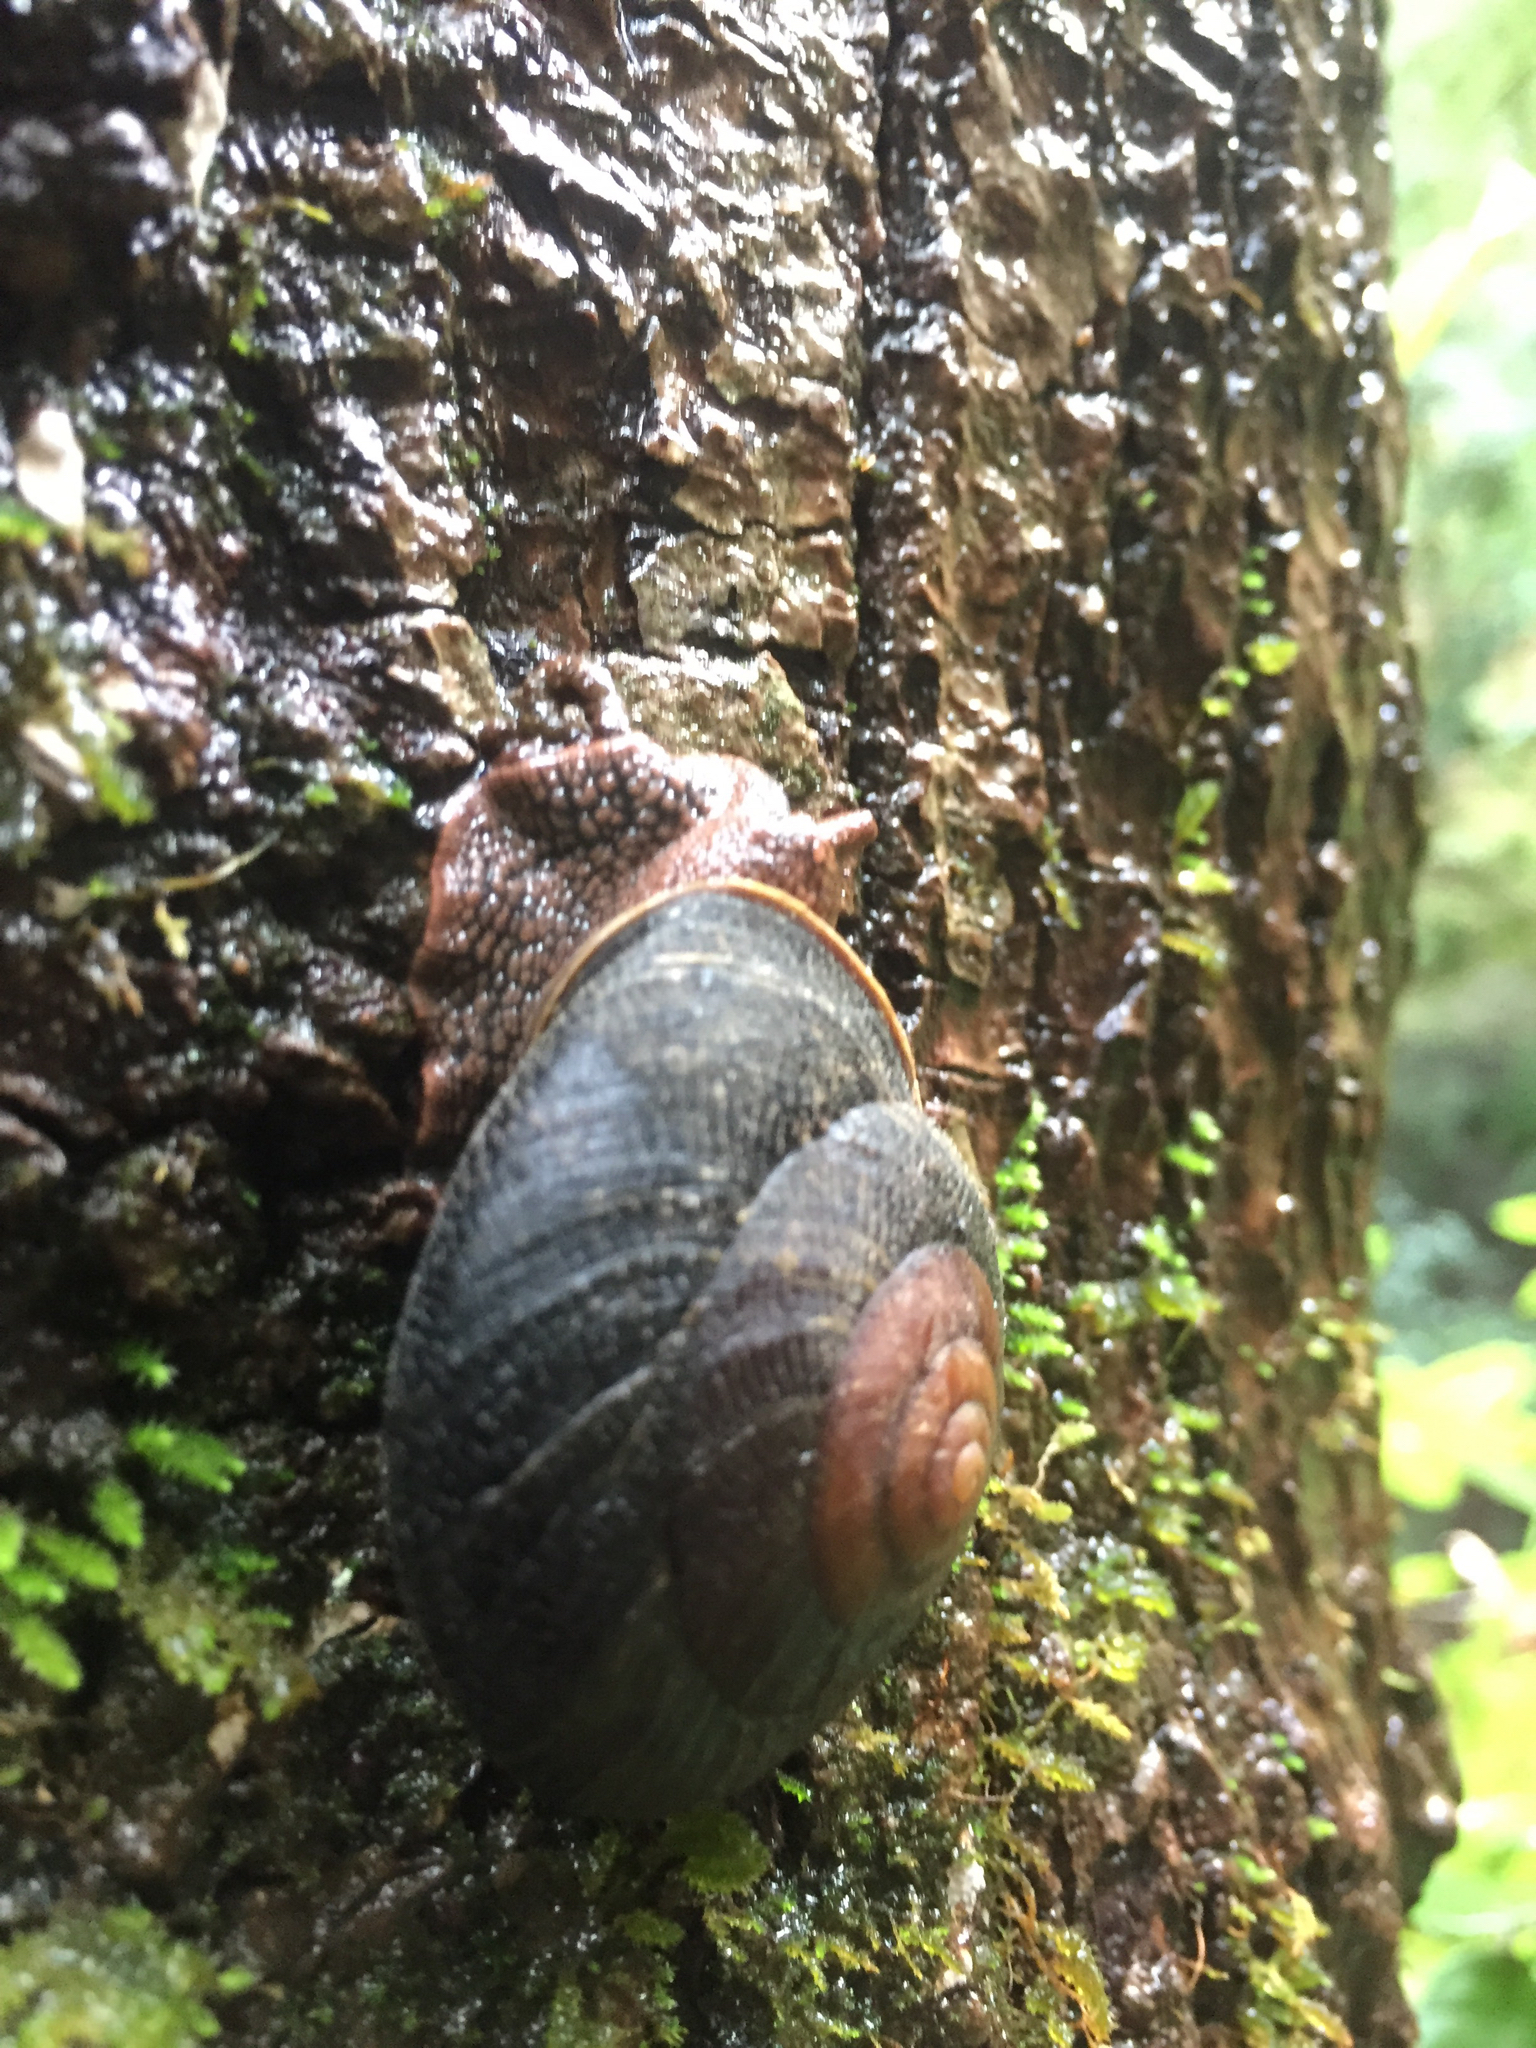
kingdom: Animalia
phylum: Mollusca
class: Gastropoda
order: Stylommatophora
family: Xanthonychidae
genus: Monadenia
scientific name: Monadenia infumata
